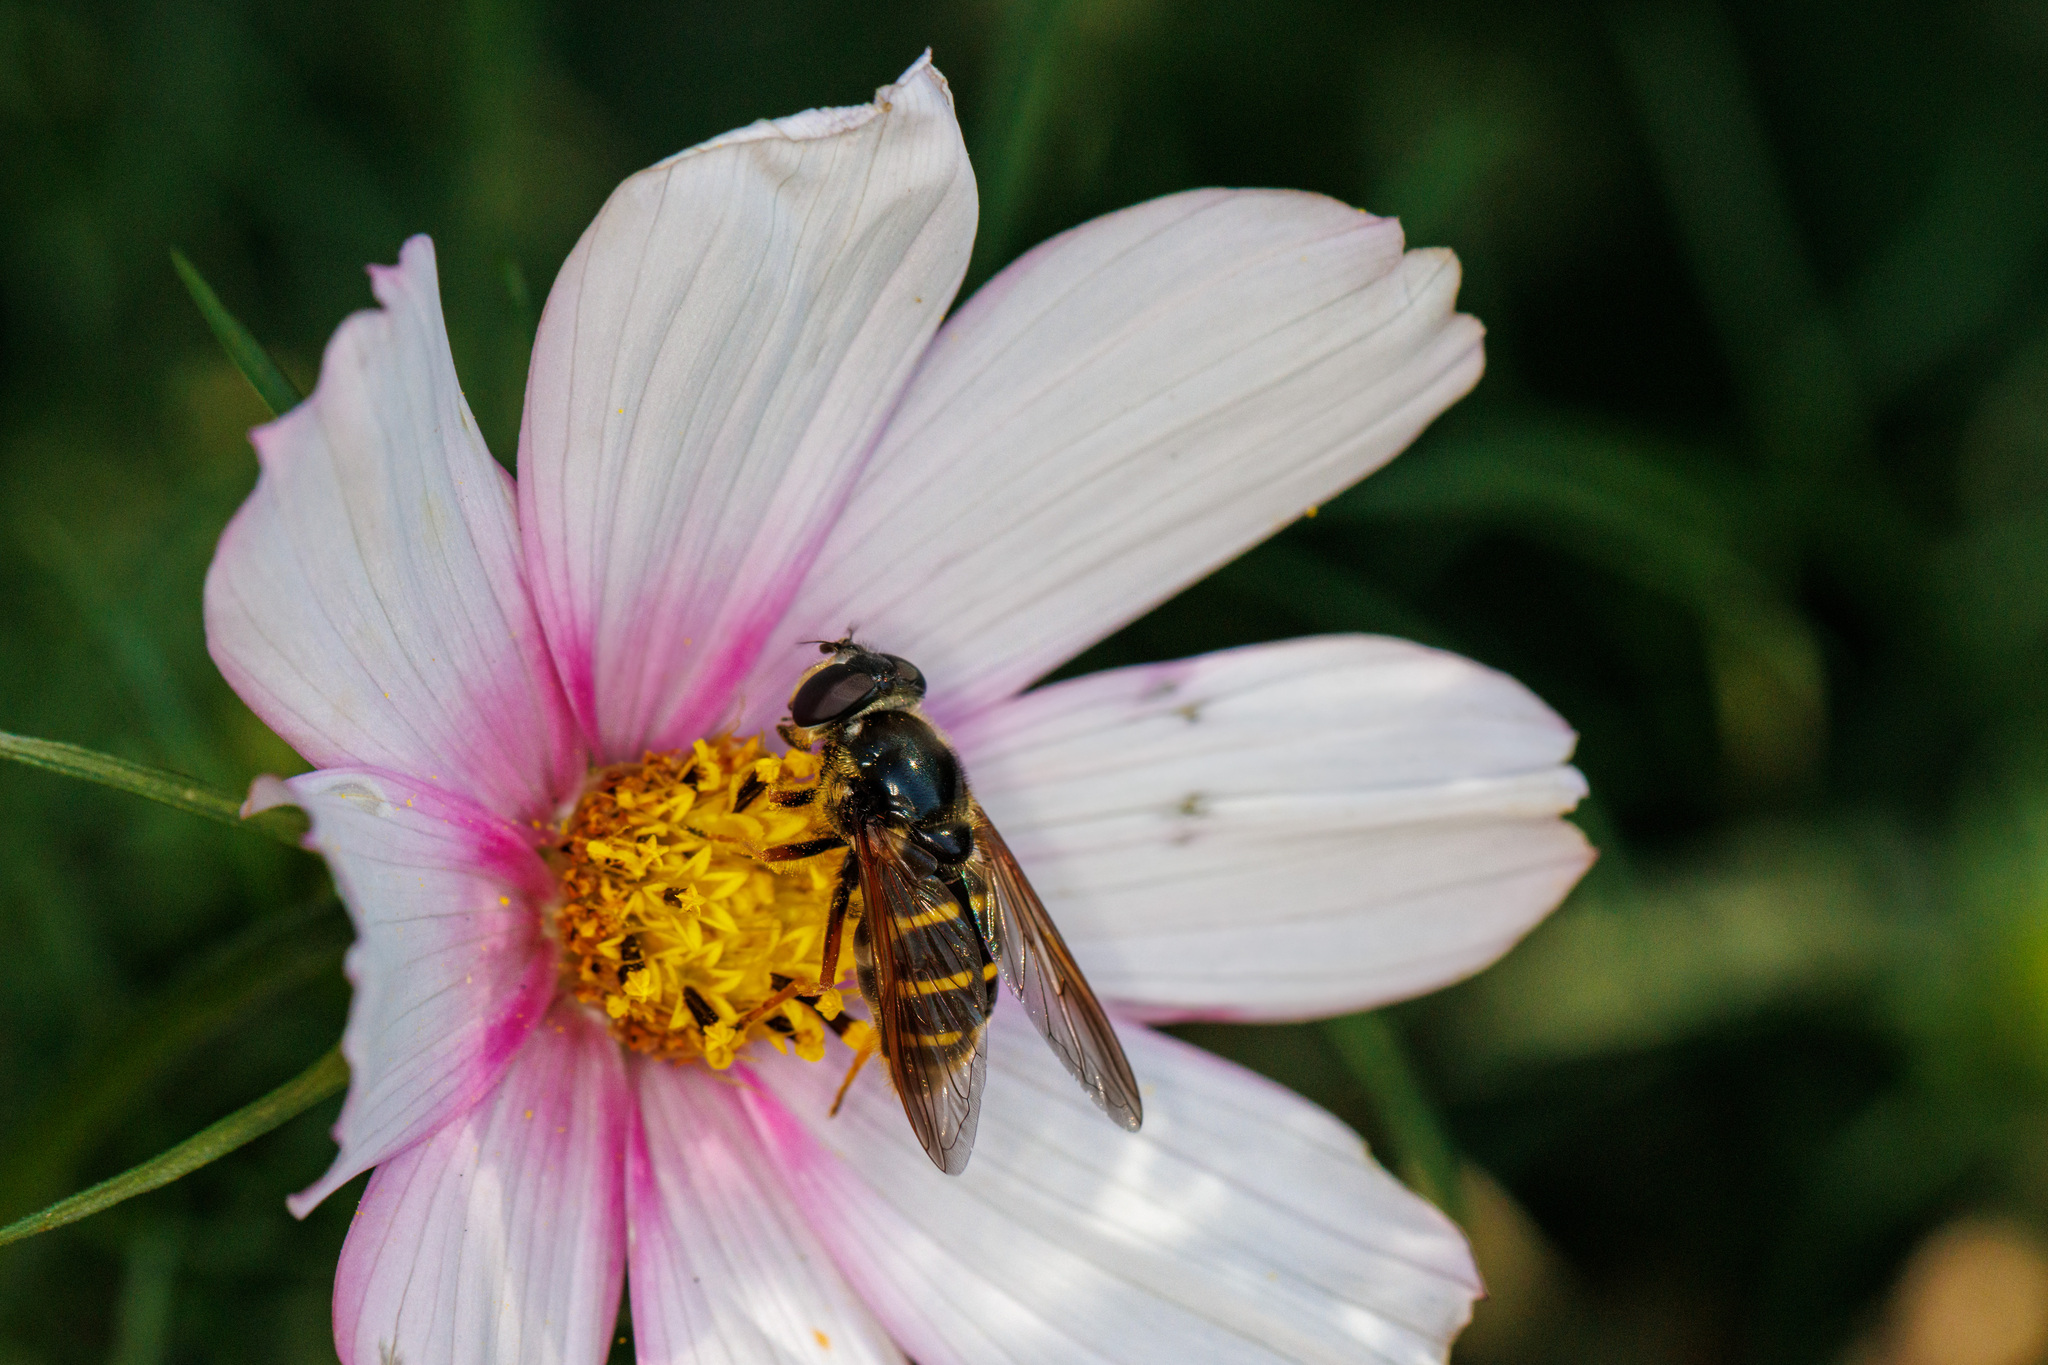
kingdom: Animalia
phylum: Arthropoda
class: Insecta
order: Diptera
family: Syrphidae
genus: Sericomyia
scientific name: Sericomyia chalcopyga
